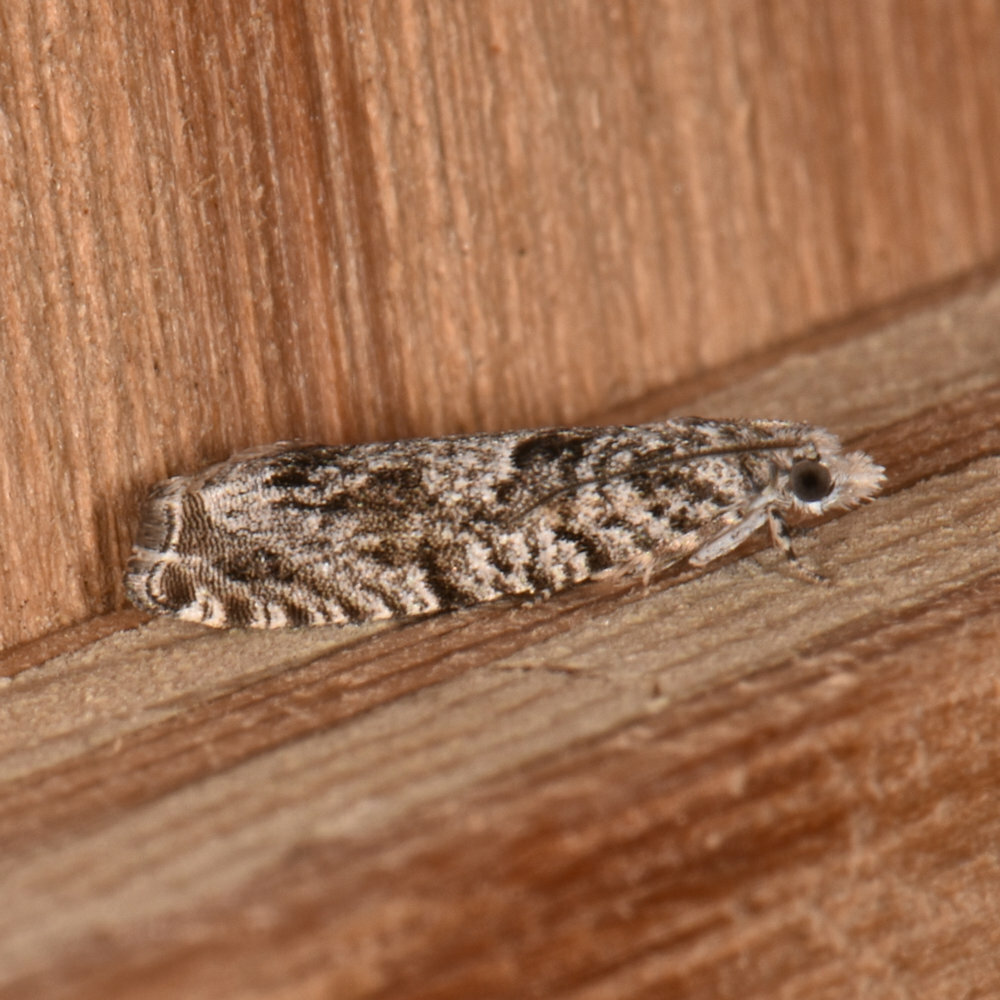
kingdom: Animalia
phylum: Arthropoda
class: Insecta
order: Lepidoptera
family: Tortricidae
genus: Catastega
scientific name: Catastega aceriella
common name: Maple trumpet skeletonizer moth
